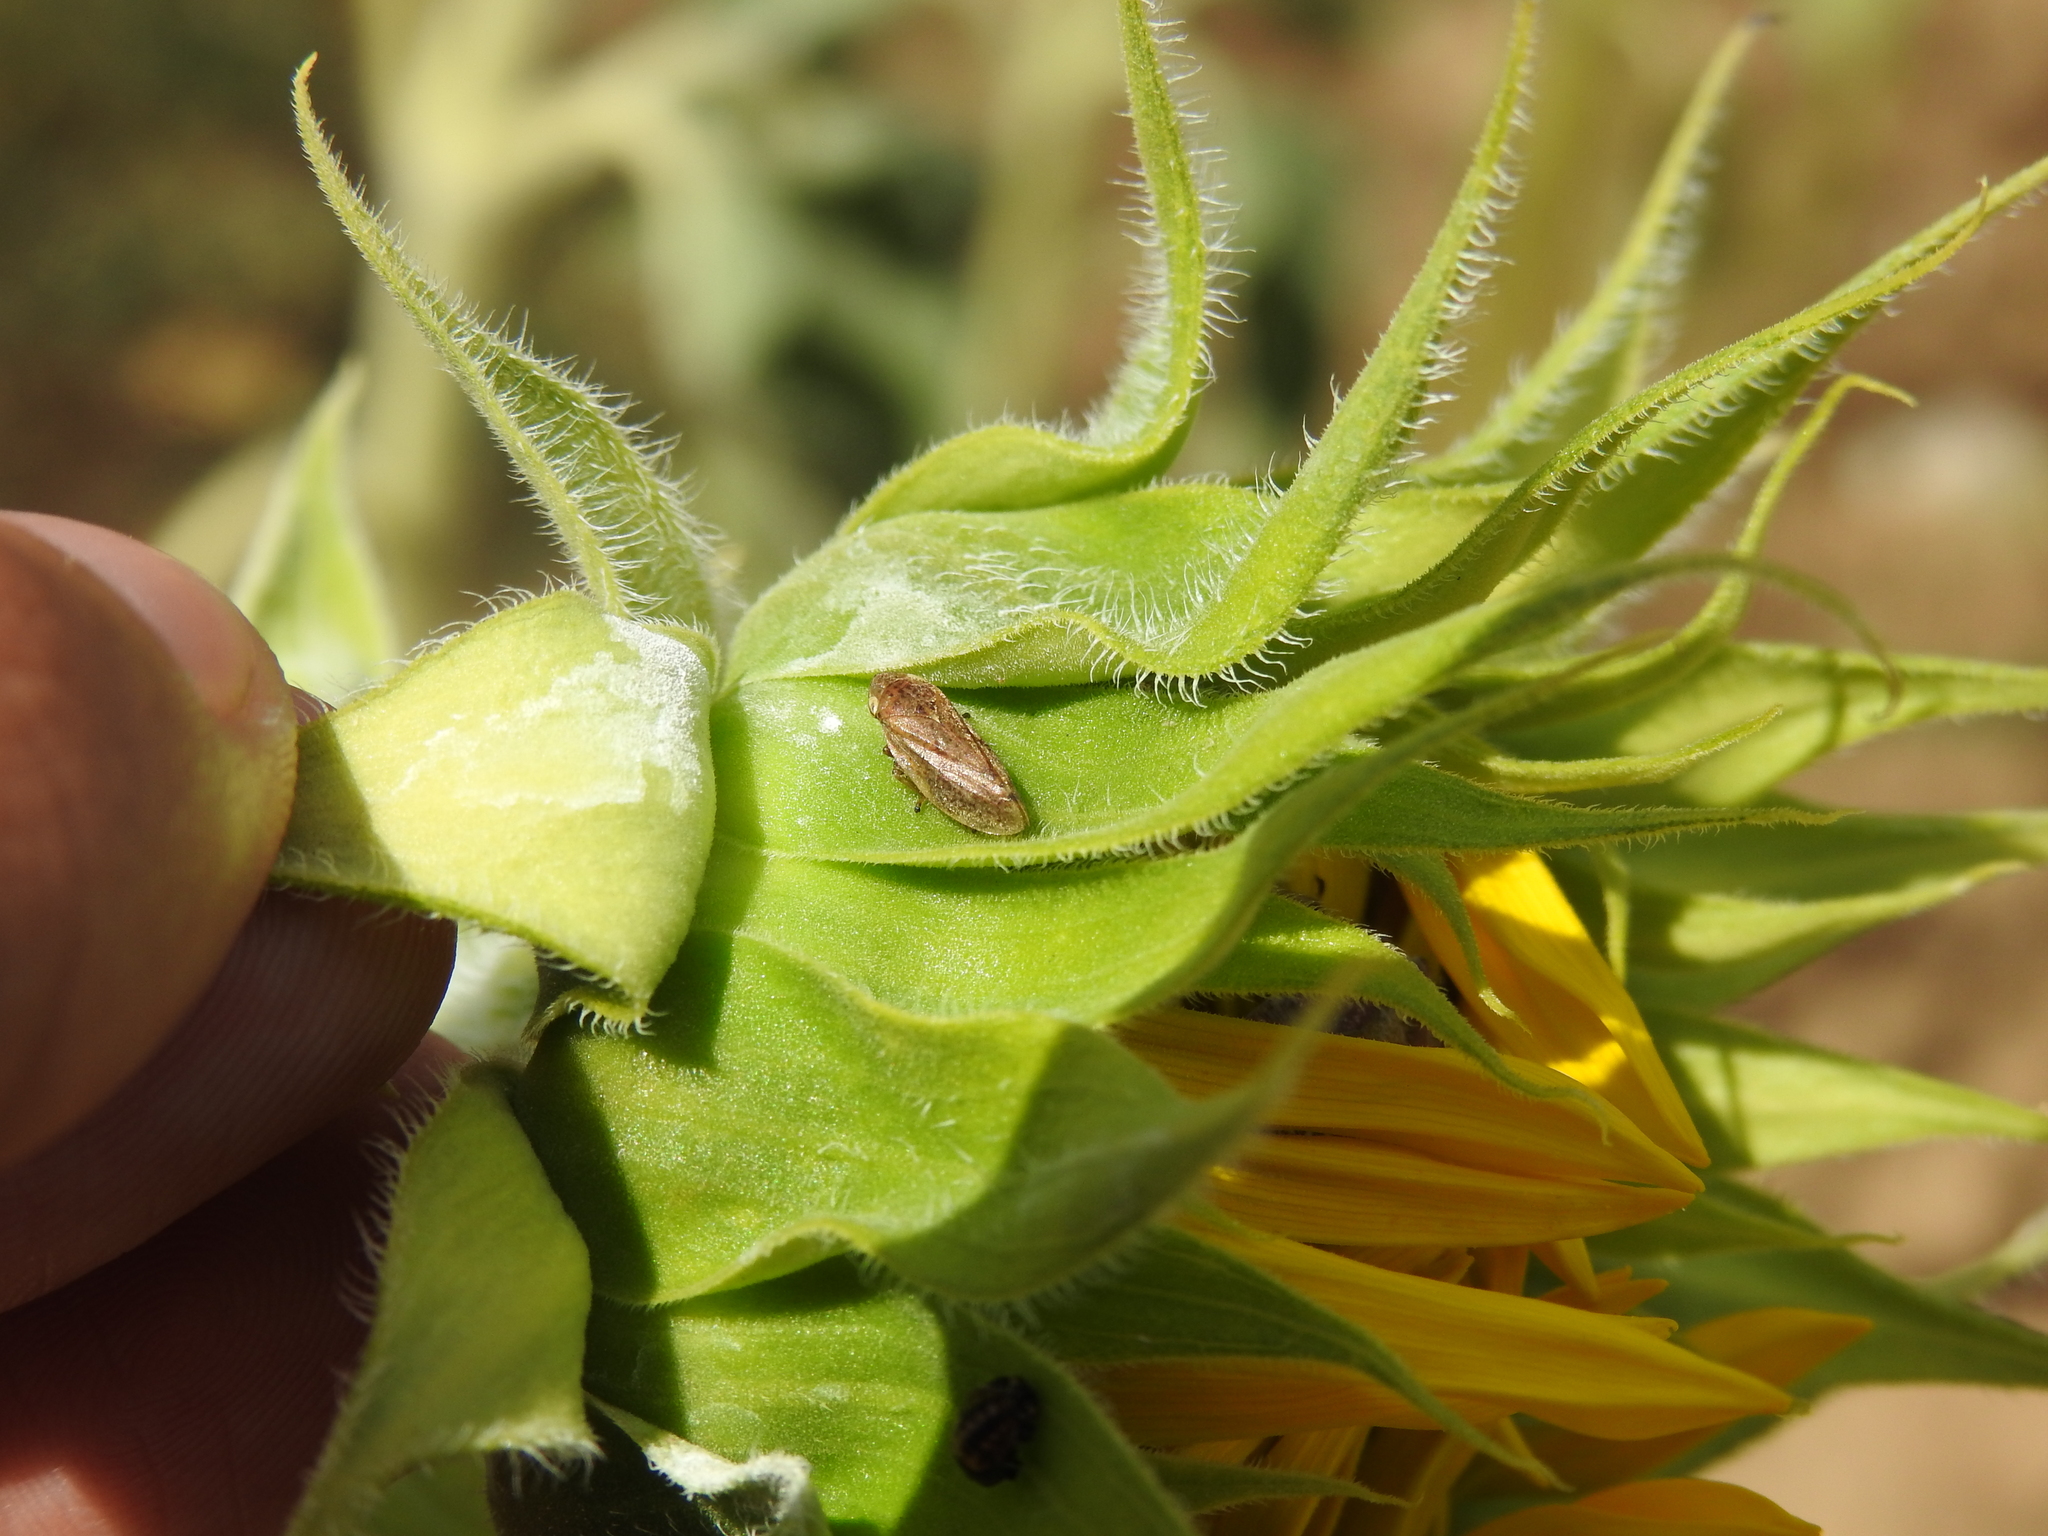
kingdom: Animalia
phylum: Arthropoda
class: Insecta
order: Hemiptera
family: Aphrophoridae
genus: Philaenus
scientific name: Philaenus spumarius
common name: Meadow spittlebug
